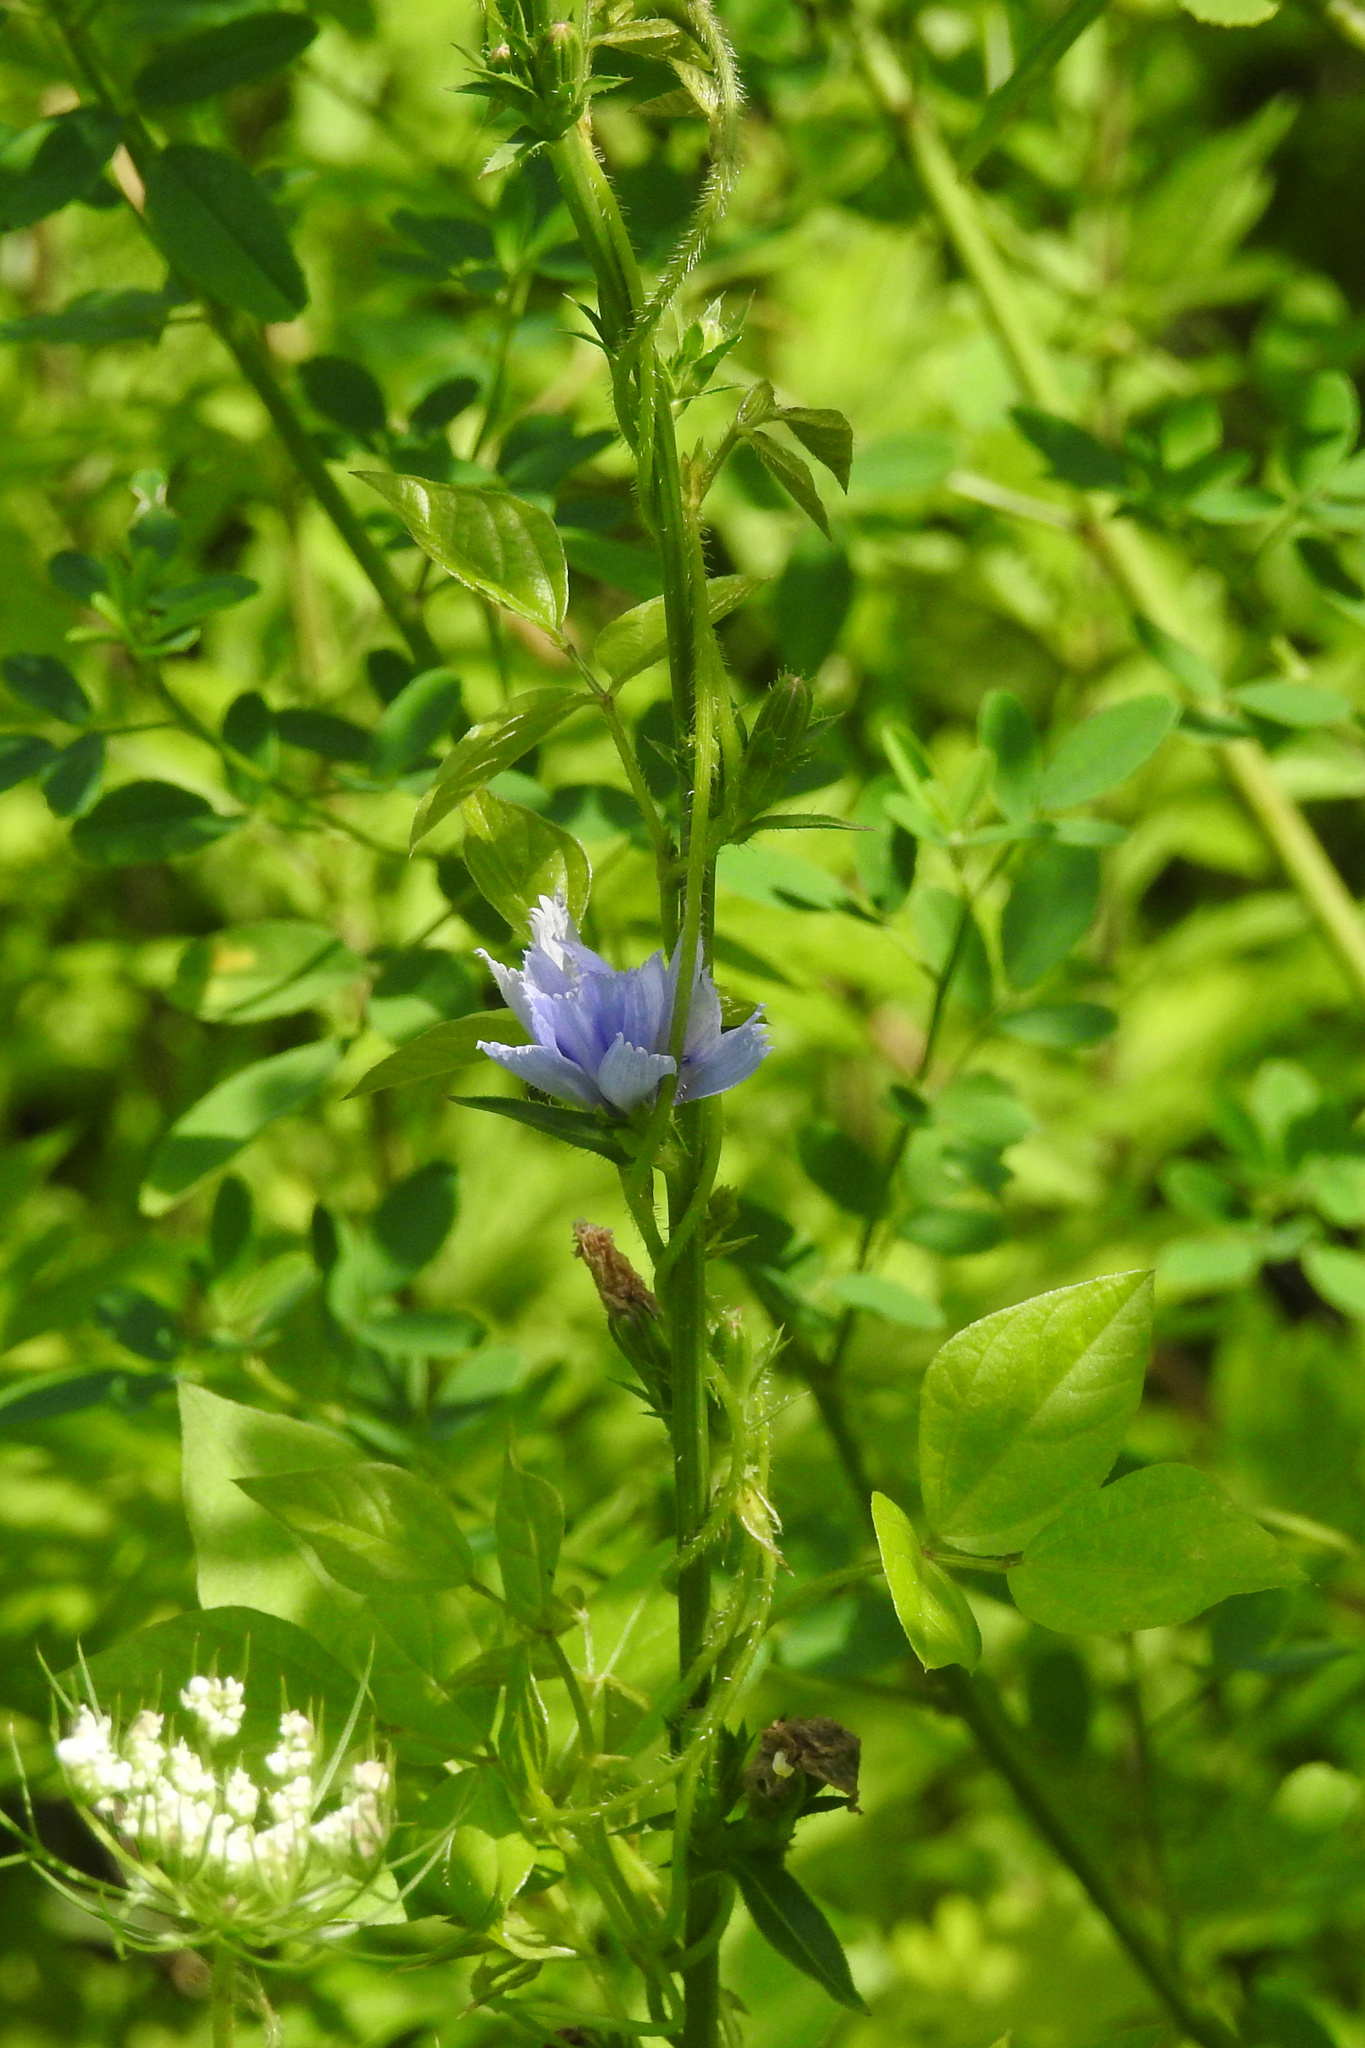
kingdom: Plantae
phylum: Tracheophyta
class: Magnoliopsida
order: Asterales
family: Asteraceae
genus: Cichorium
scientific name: Cichorium intybus
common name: Chicory
